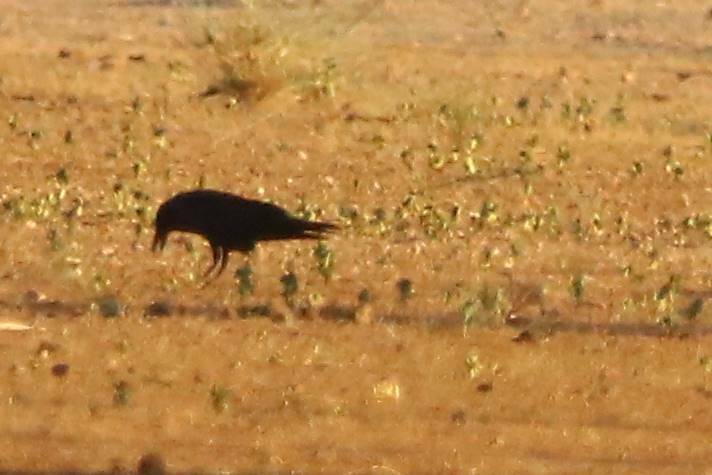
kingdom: Animalia
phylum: Chordata
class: Aves
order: Passeriformes
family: Corvidae
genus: Corvus
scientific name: Corvus ruficollis
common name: Brown-necked raven
